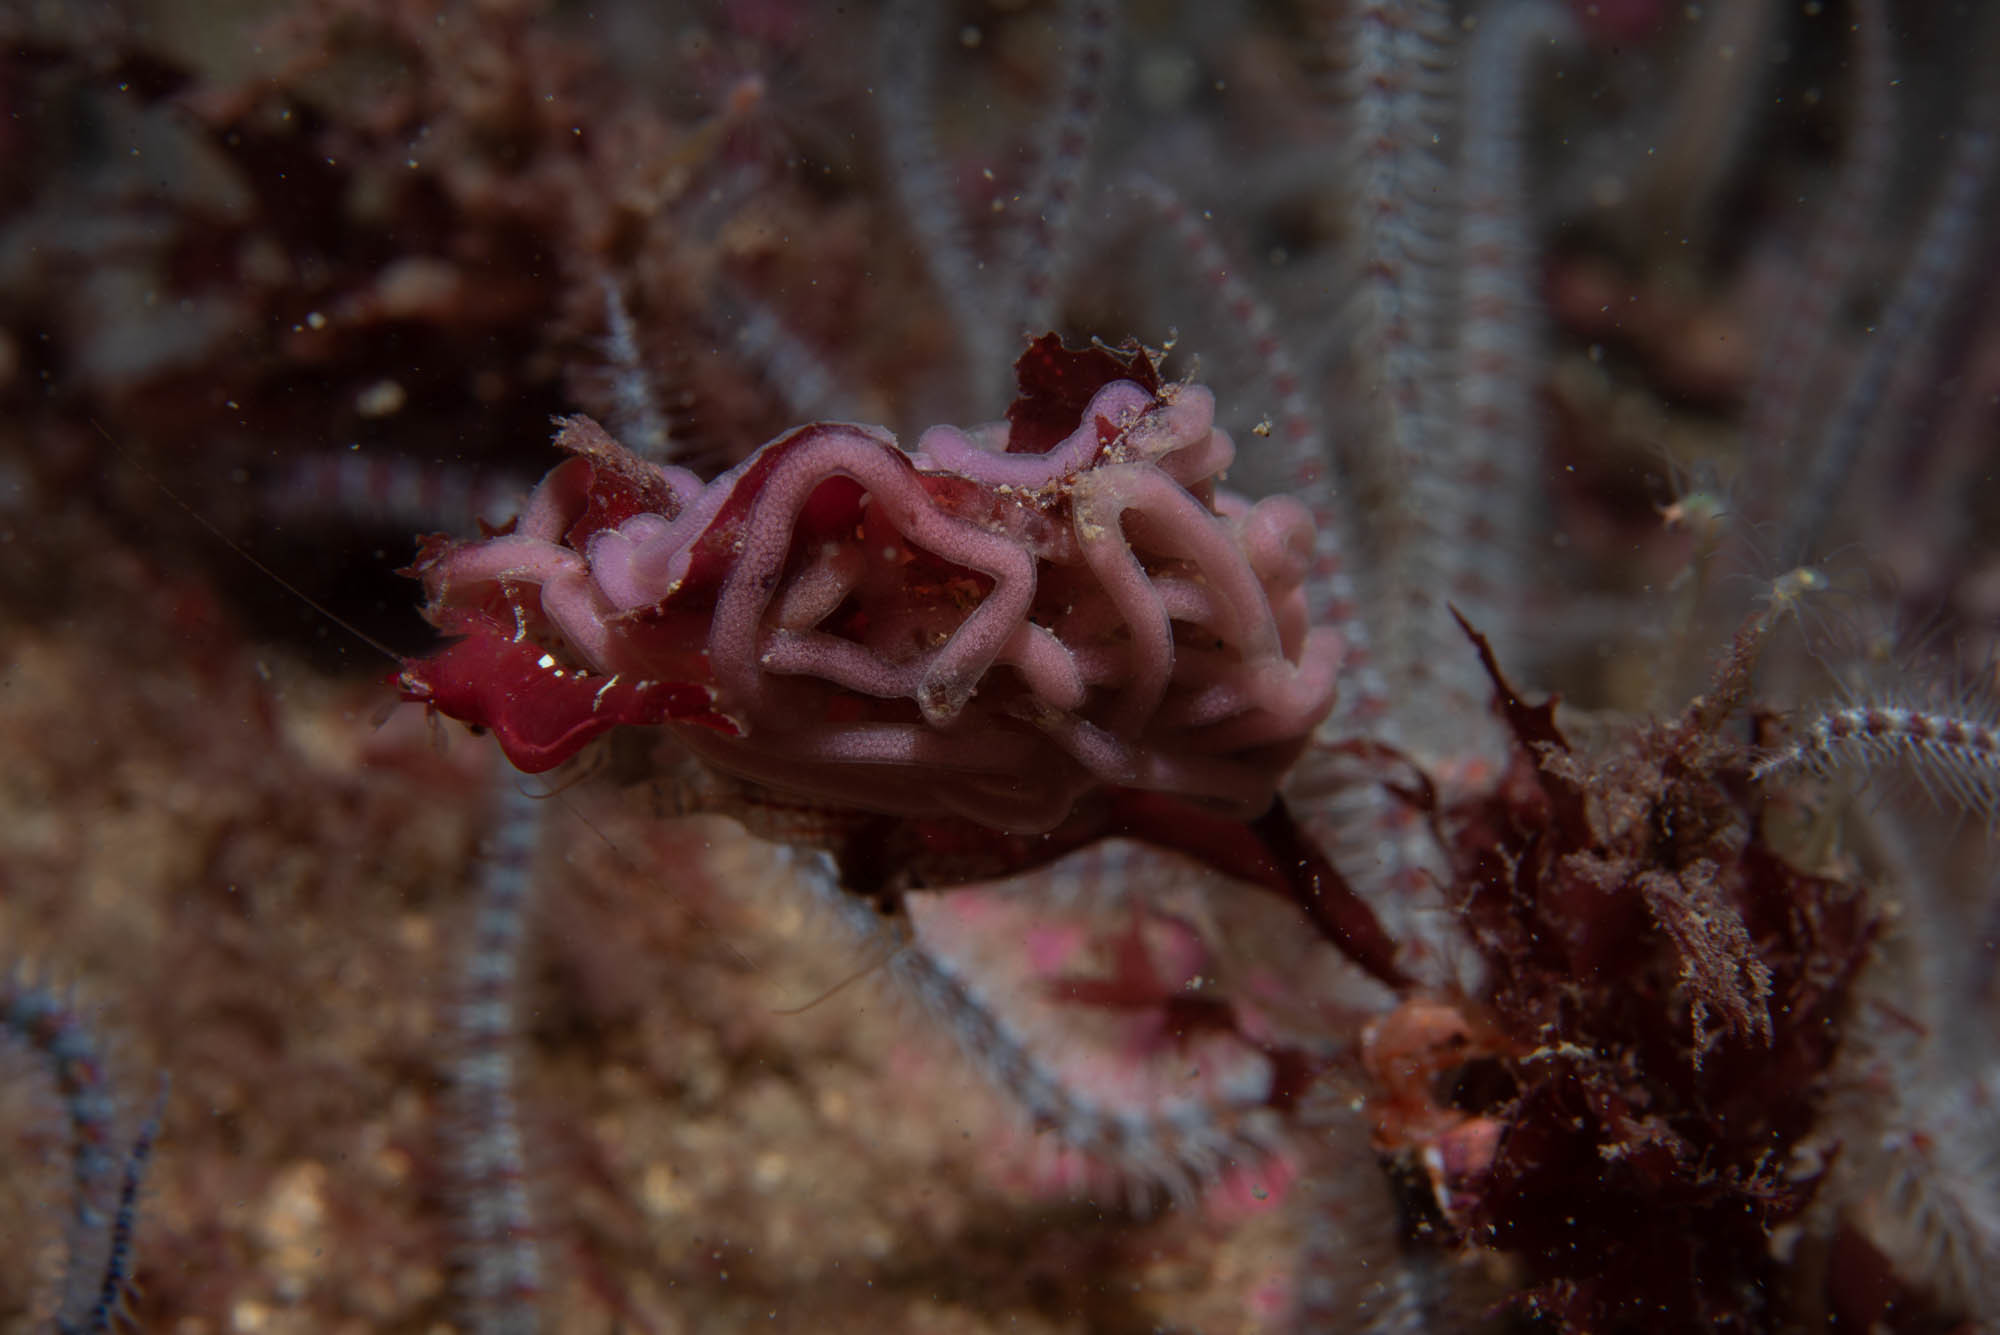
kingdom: Animalia
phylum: Mollusca
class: Gastropoda
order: Aplysiida
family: Aplysiidae
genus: Aplysia
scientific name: Aplysia punctata
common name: Common sea hare
